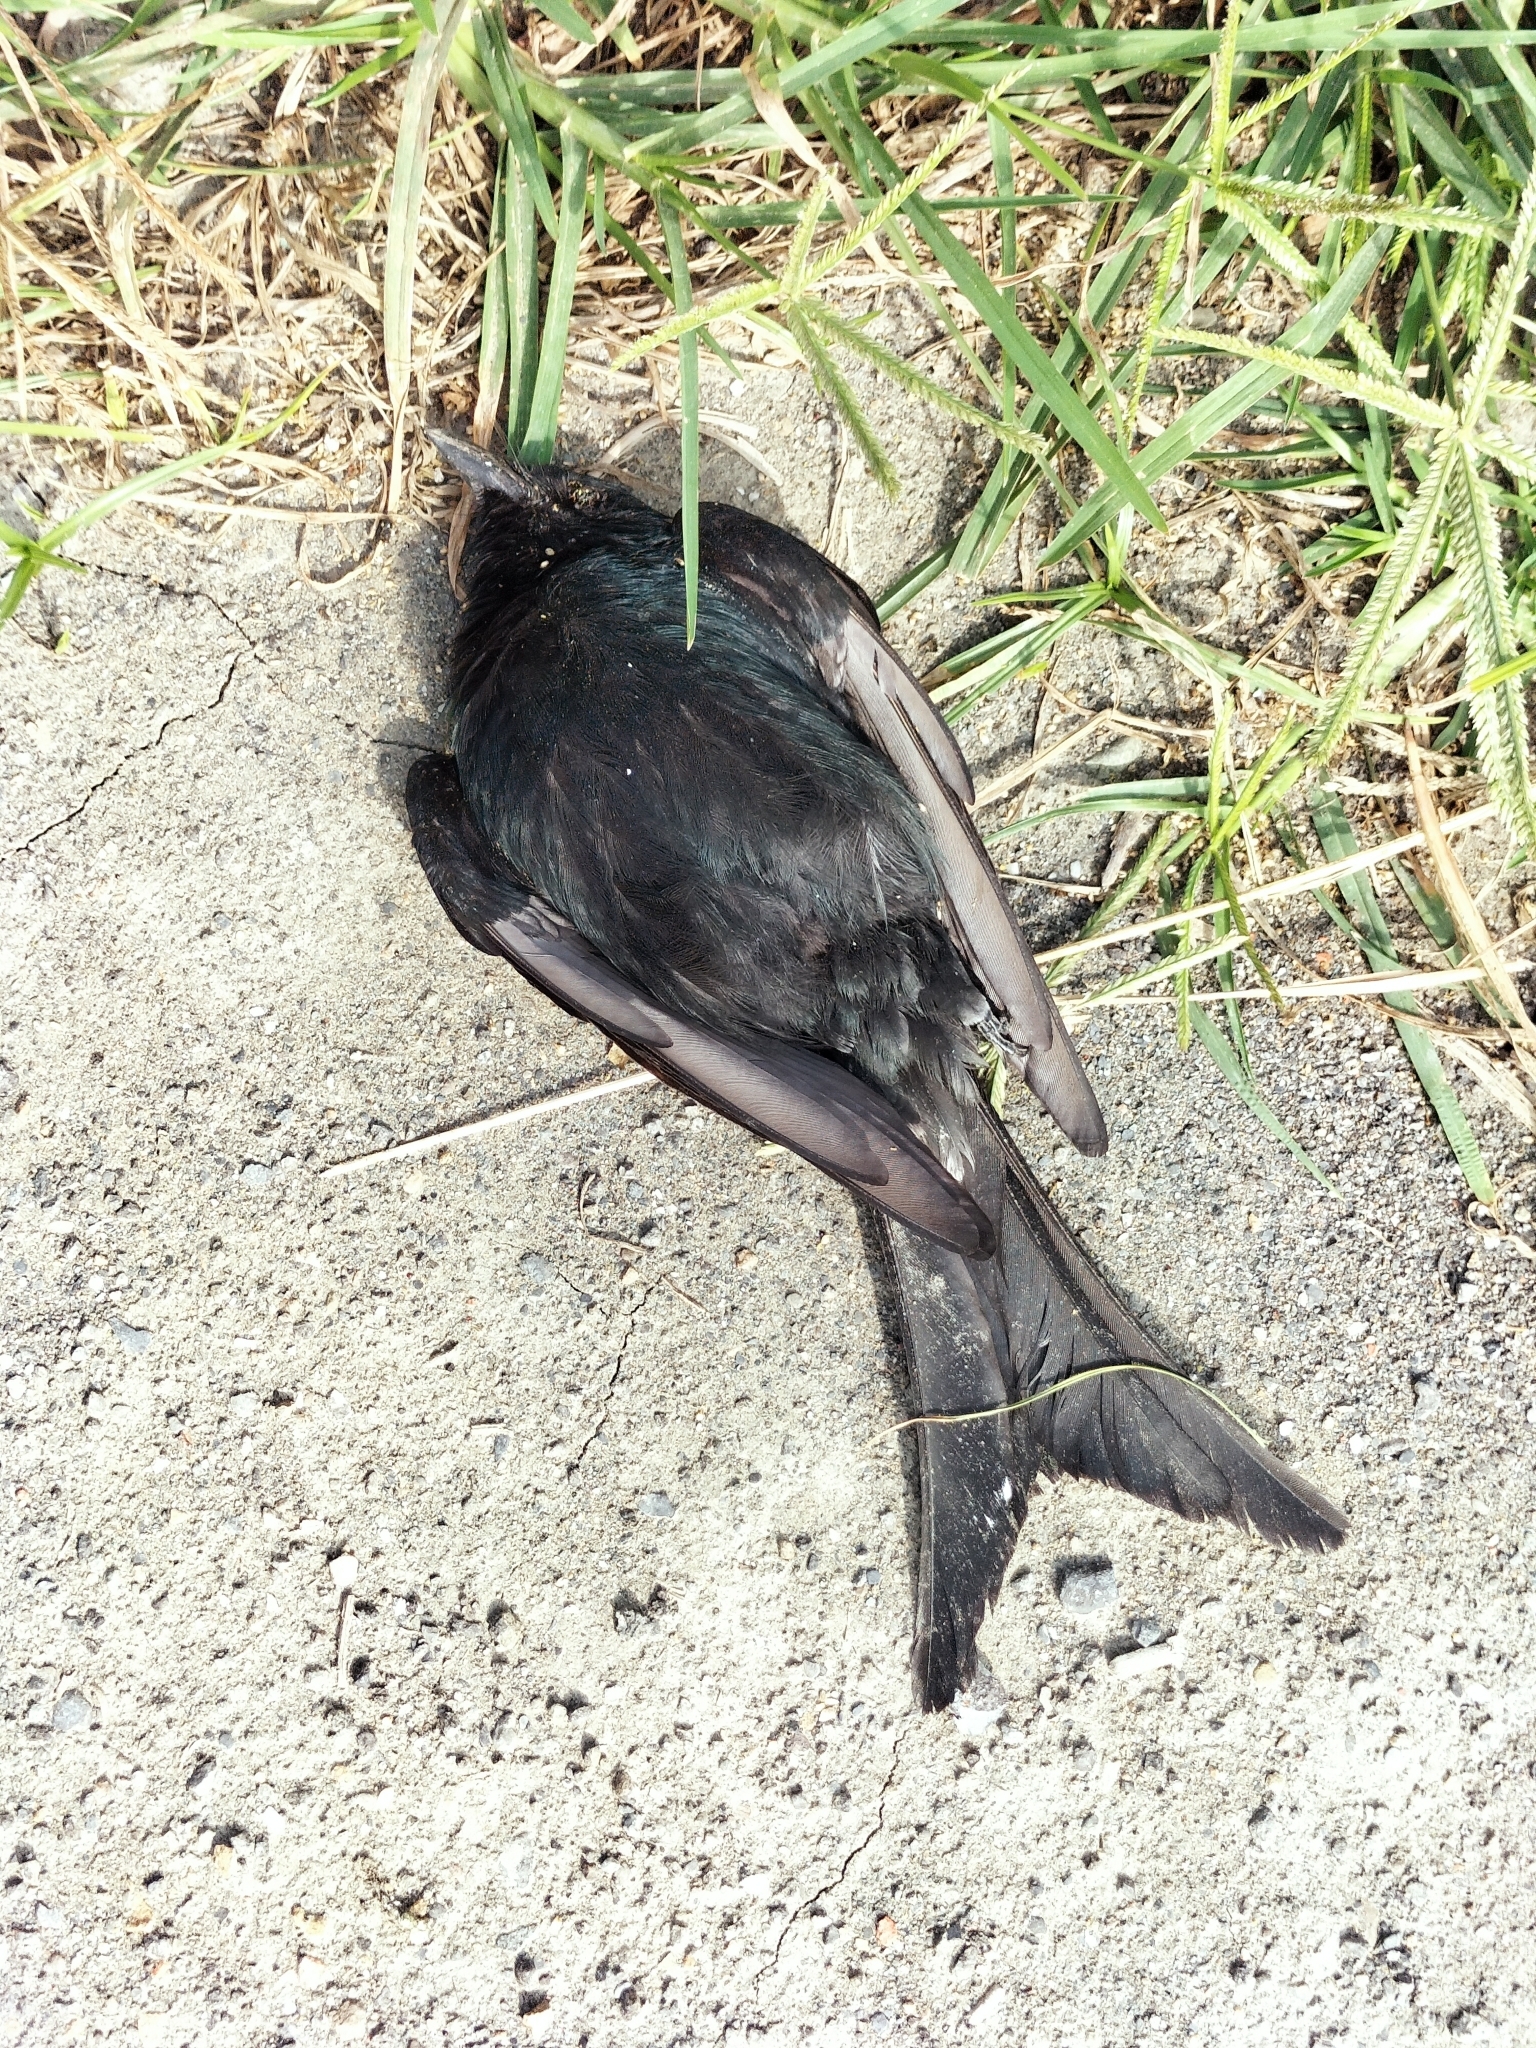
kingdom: Animalia
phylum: Chordata
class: Aves
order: Passeriformes
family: Dicruridae
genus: Dicrurus
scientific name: Dicrurus macrocercus
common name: Black drongo
